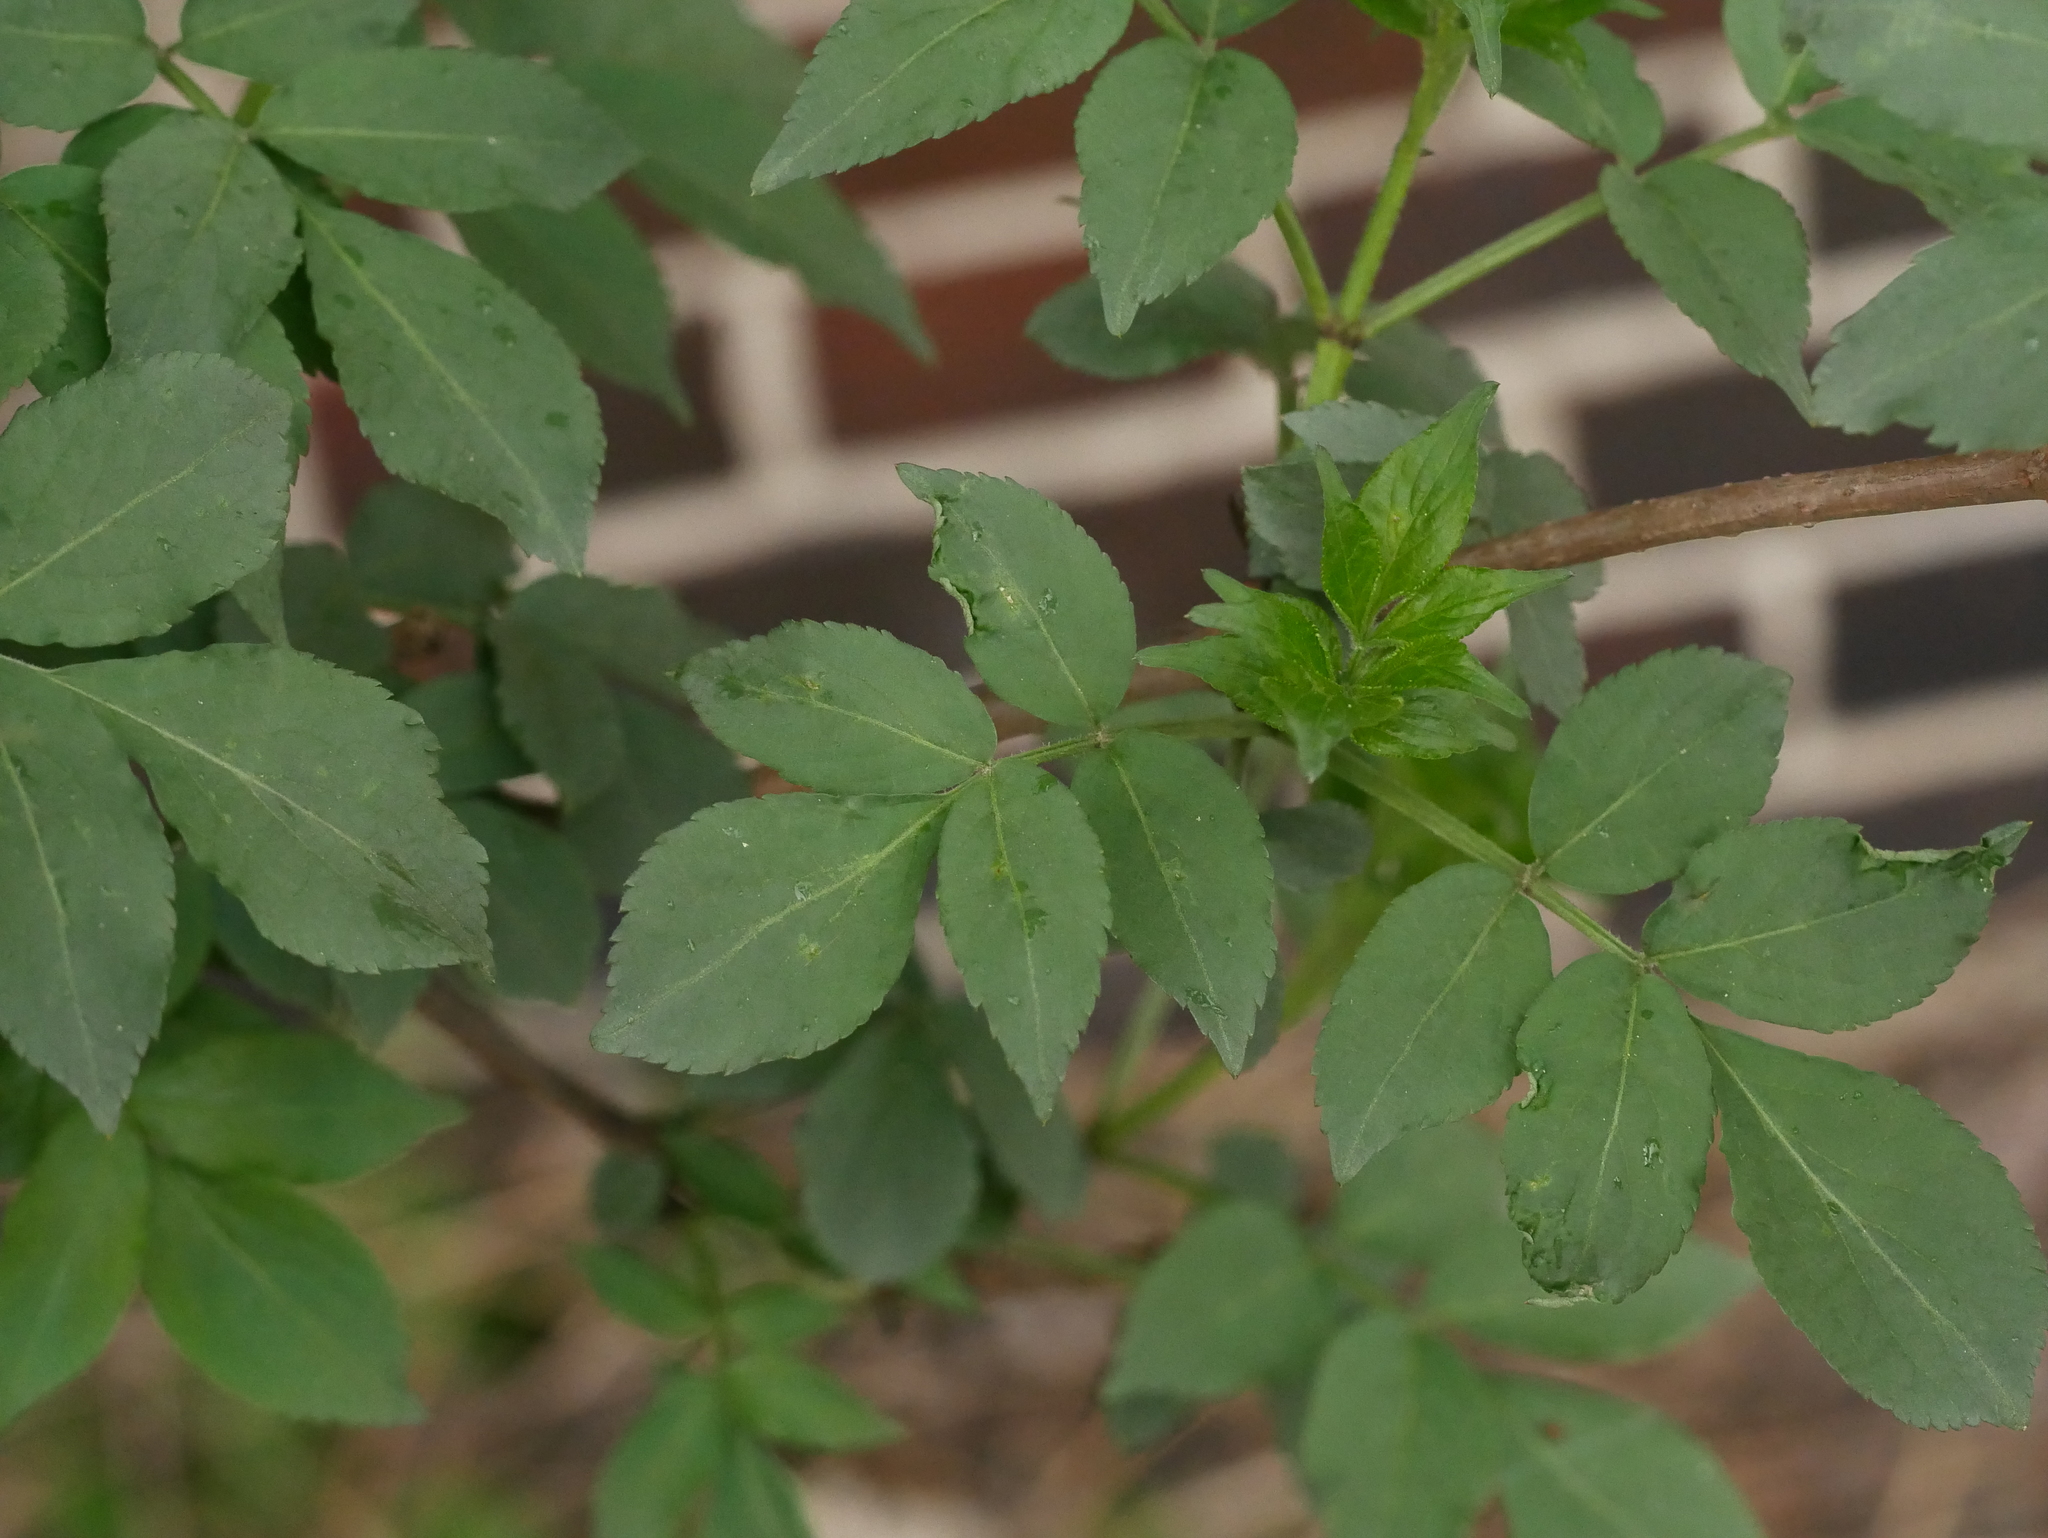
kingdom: Plantae
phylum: Tracheophyta
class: Magnoliopsida
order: Dipsacales
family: Viburnaceae
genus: Sambucus
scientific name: Sambucus nigra
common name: Elder
